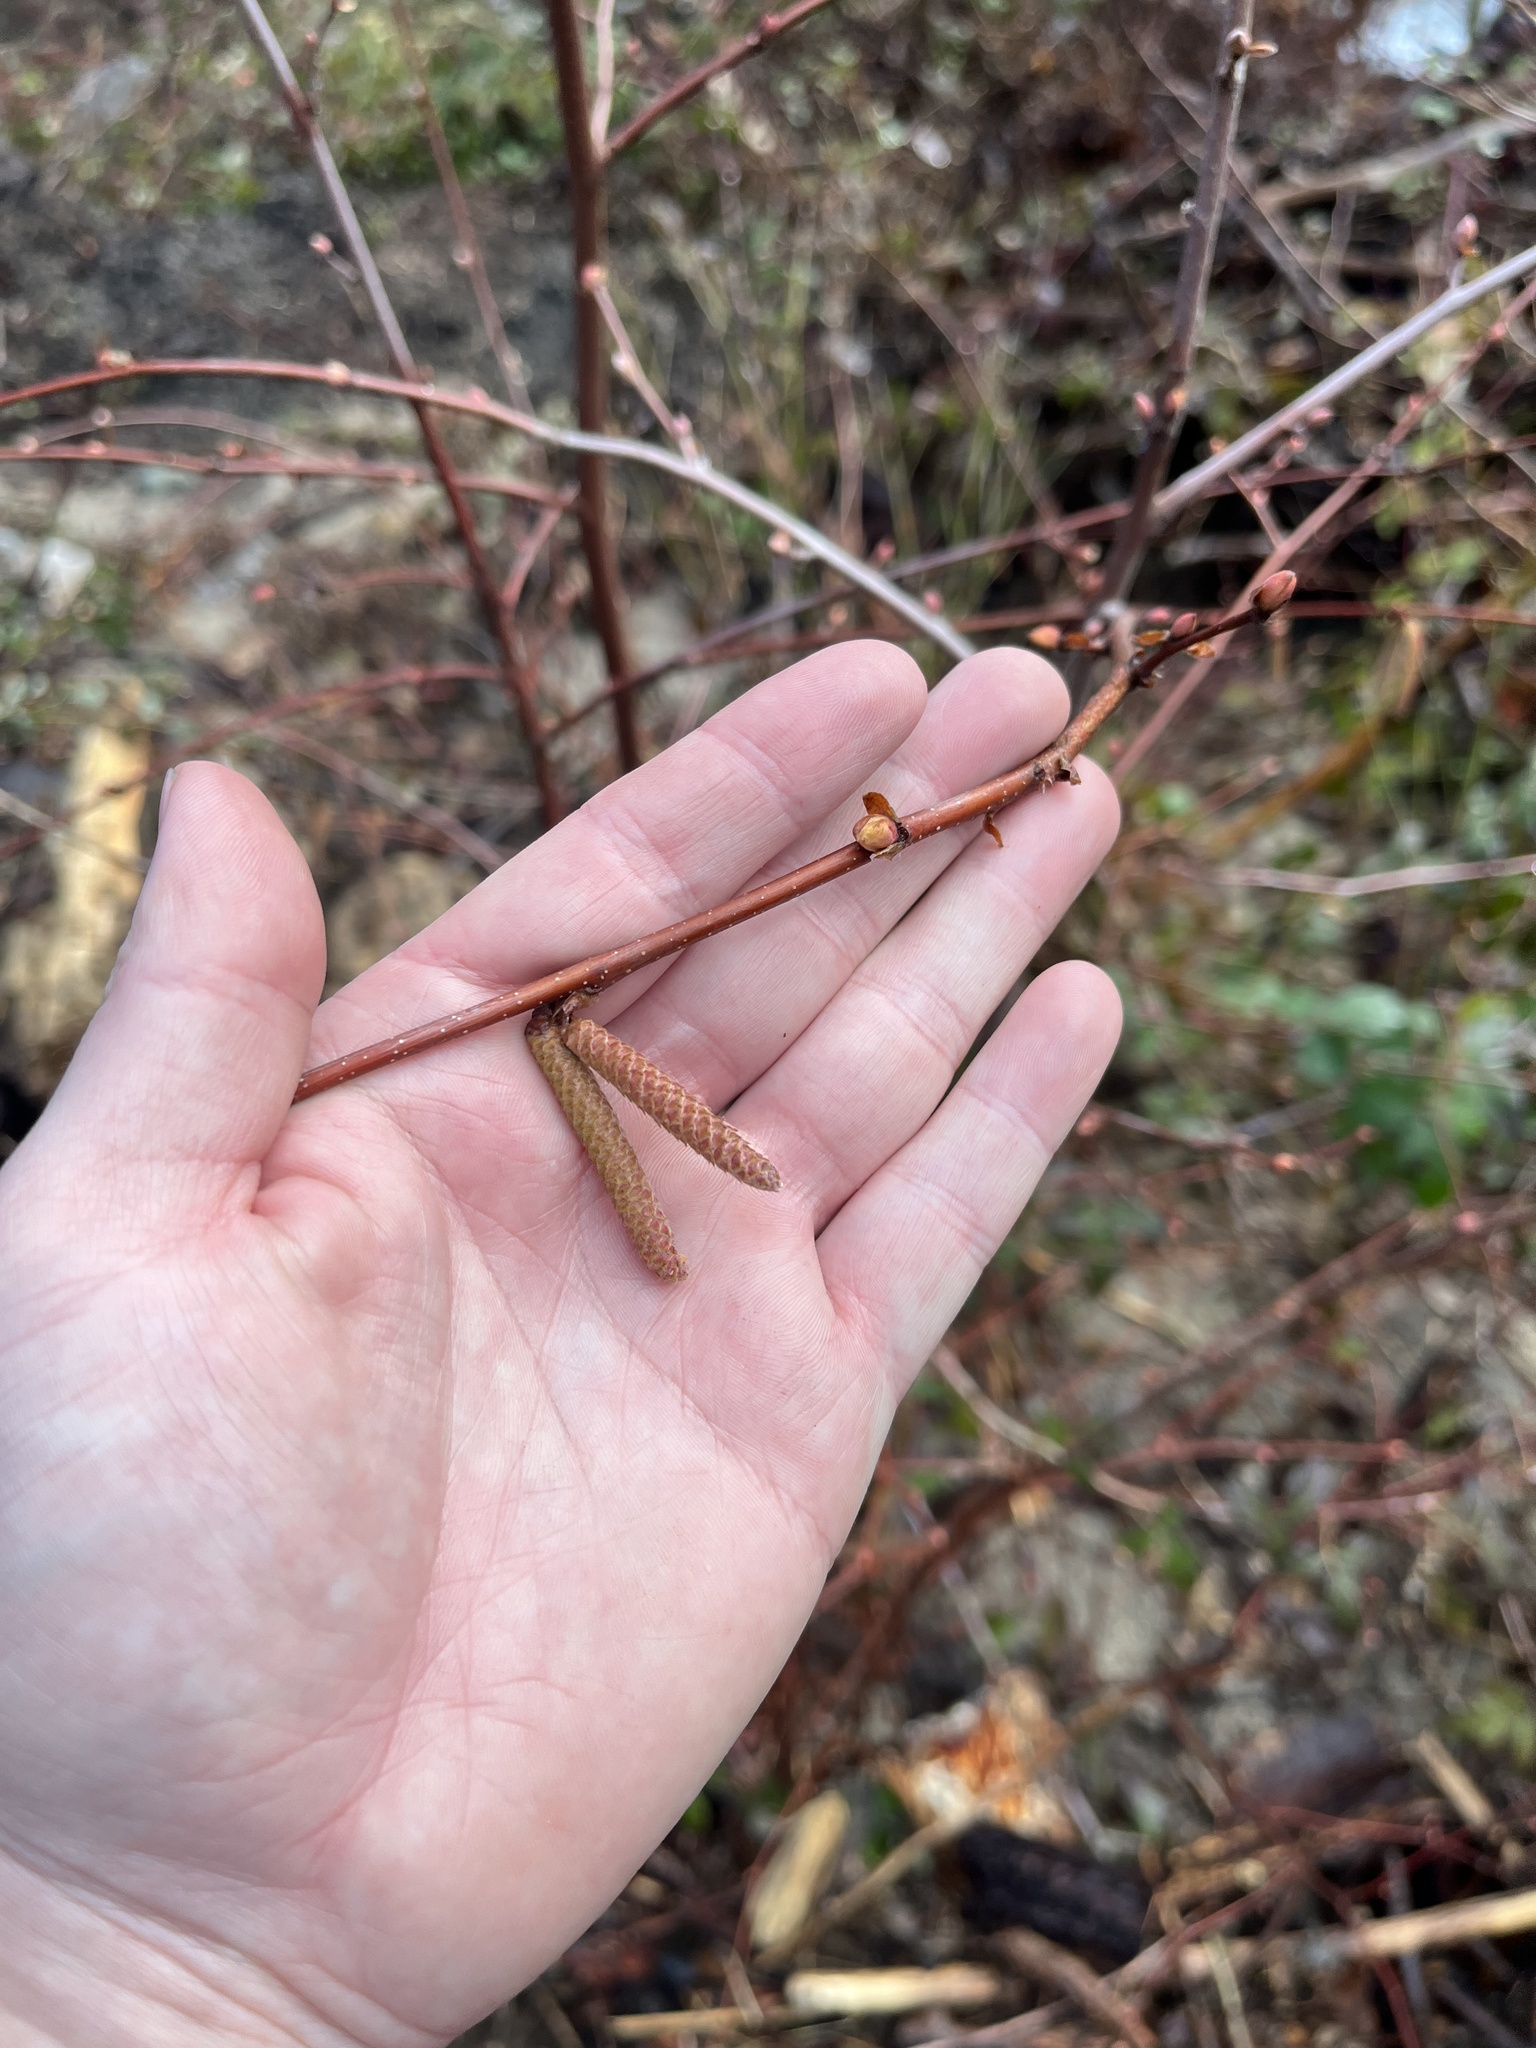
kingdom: Plantae
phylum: Tracheophyta
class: Magnoliopsida
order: Fagales
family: Betulaceae
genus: Corylus
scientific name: Corylus cornuta
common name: Beaked hazel
